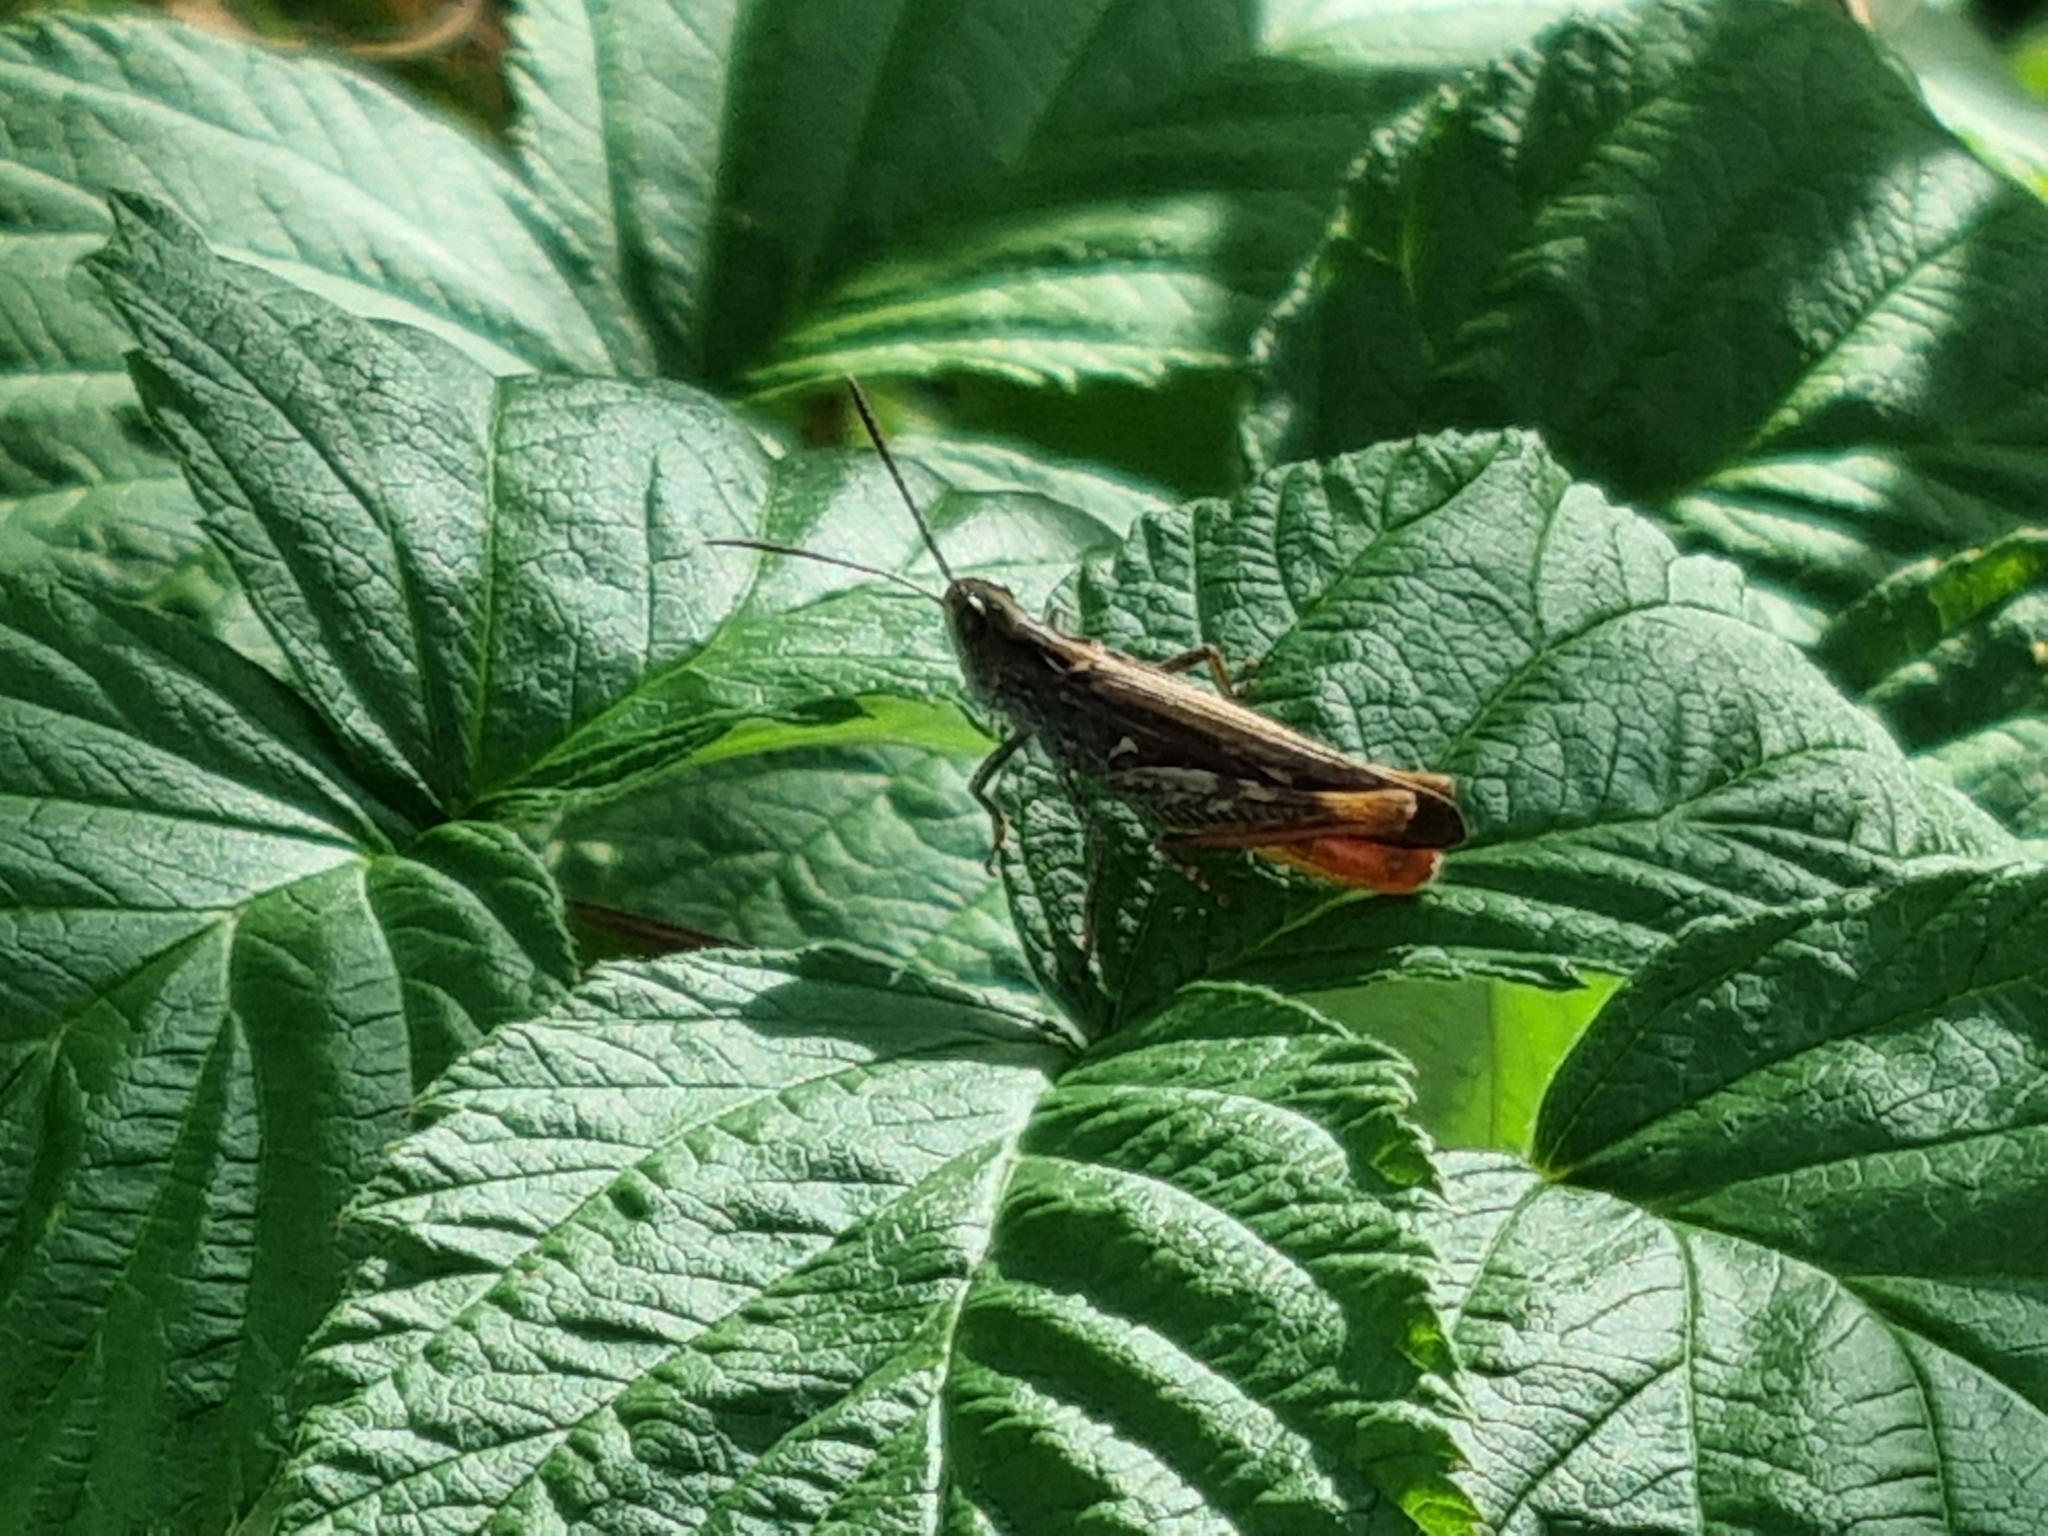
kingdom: Animalia
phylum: Arthropoda
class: Insecta
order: Orthoptera
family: Acrididae
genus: Chorthippus
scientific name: Chorthippus brunneus
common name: Field grasshopper
